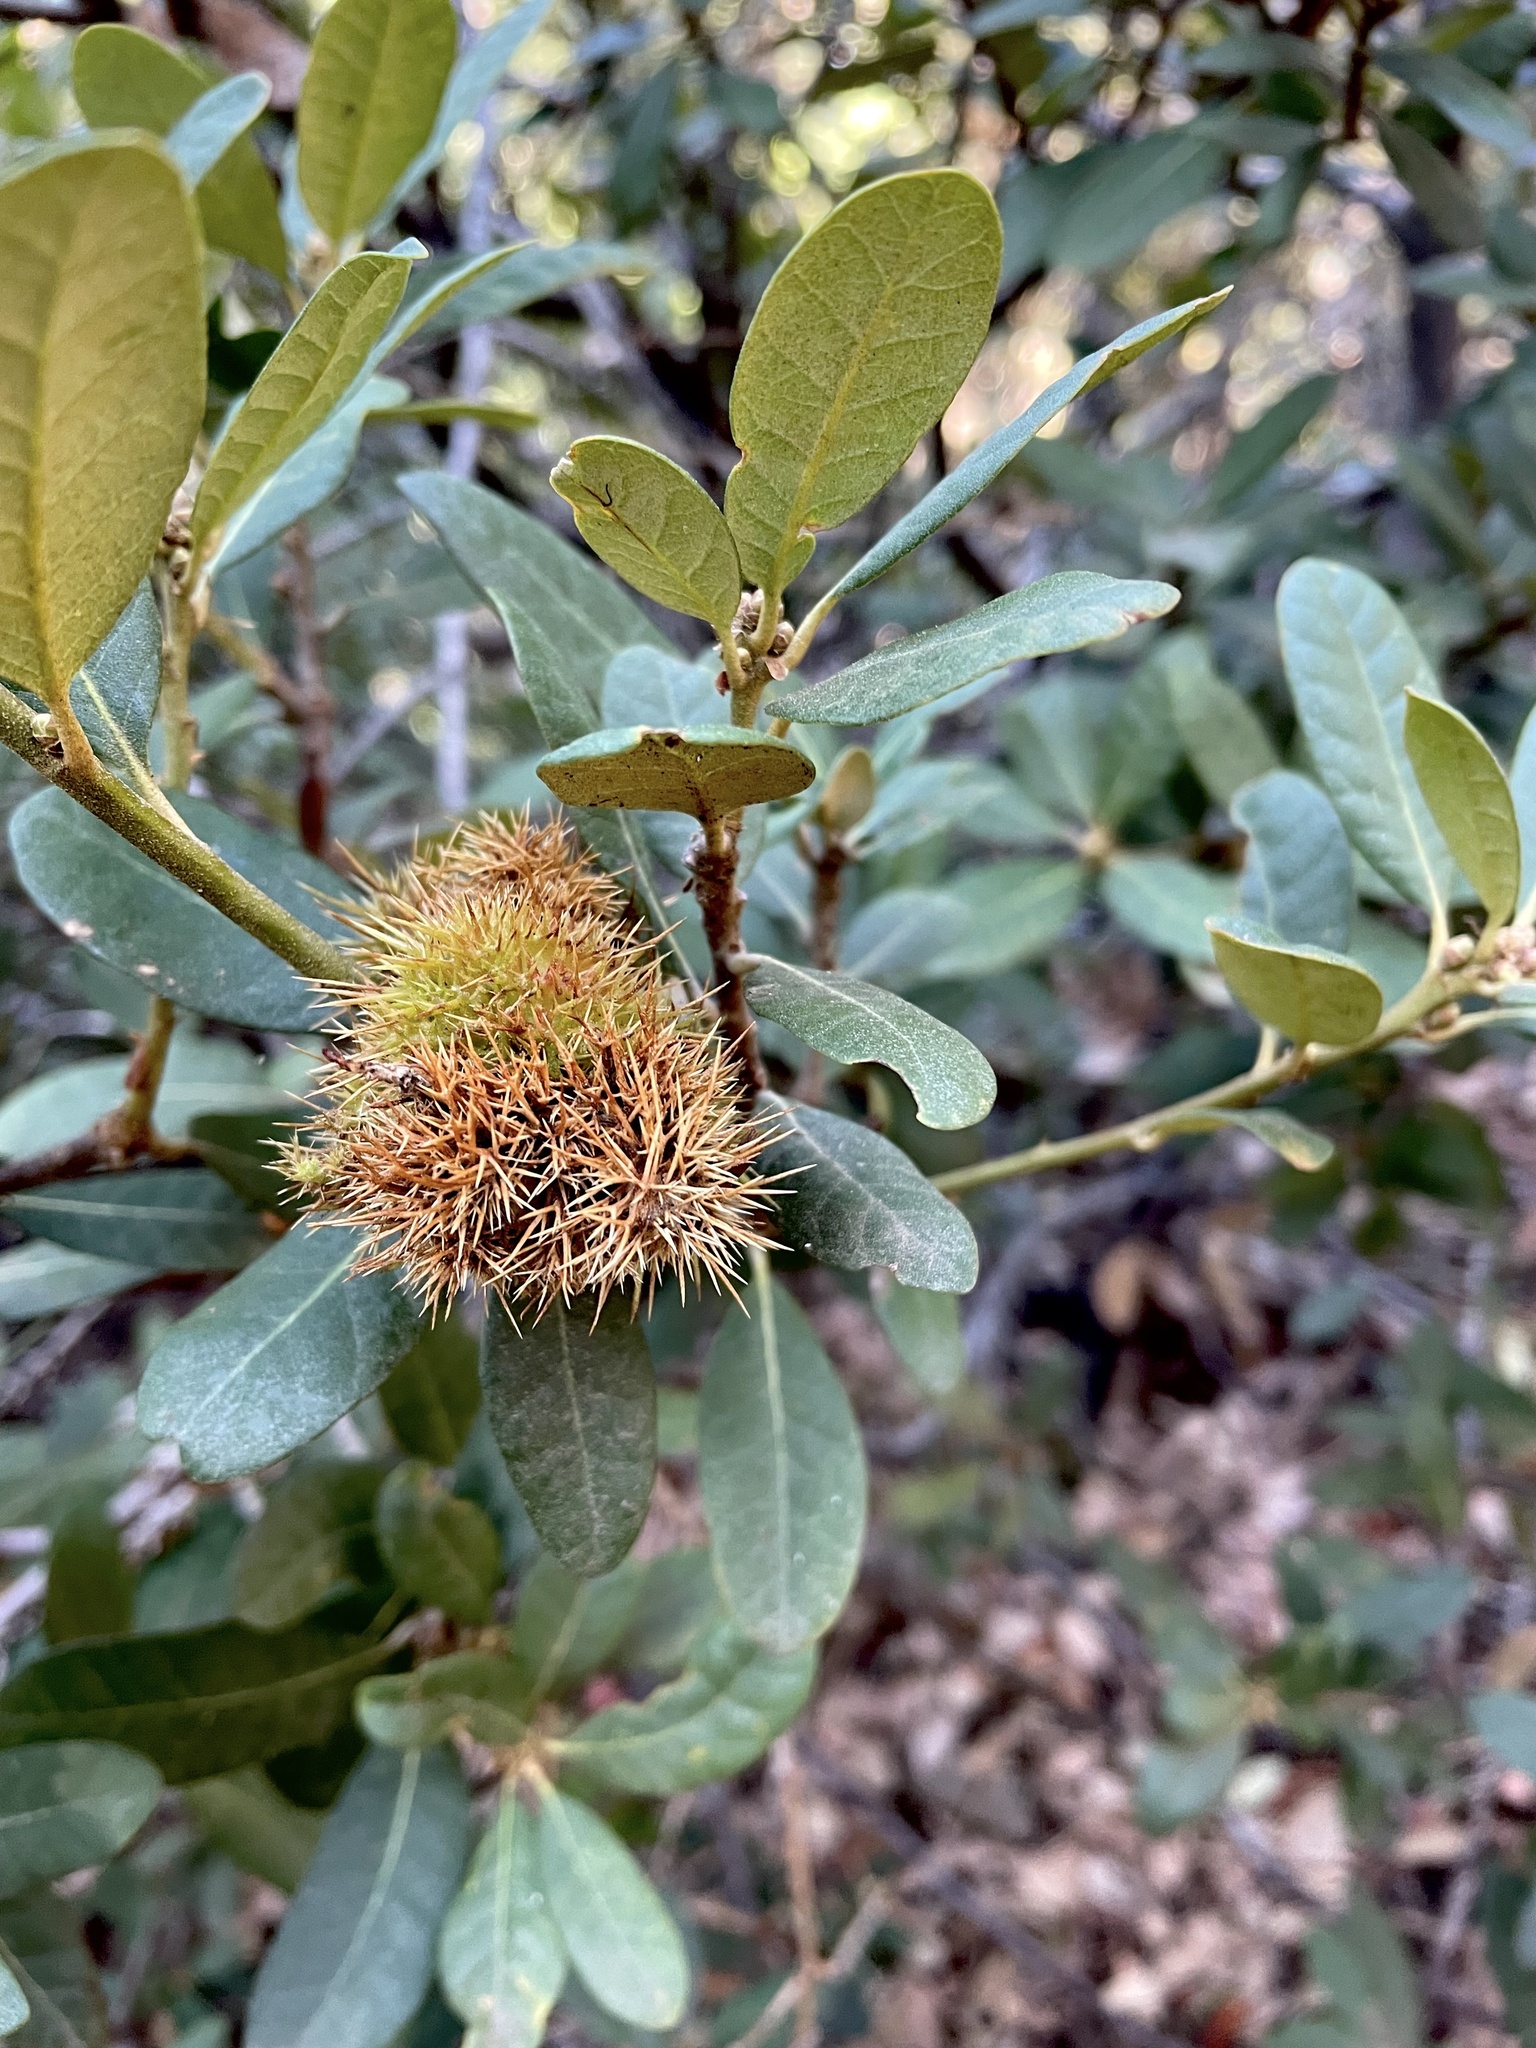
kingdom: Plantae
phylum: Tracheophyta
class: Magnoliopsida
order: Fagales
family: Fagaceae
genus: Chrysolepis
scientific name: Chrysolepis sempervirens
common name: Bush chinquapin
